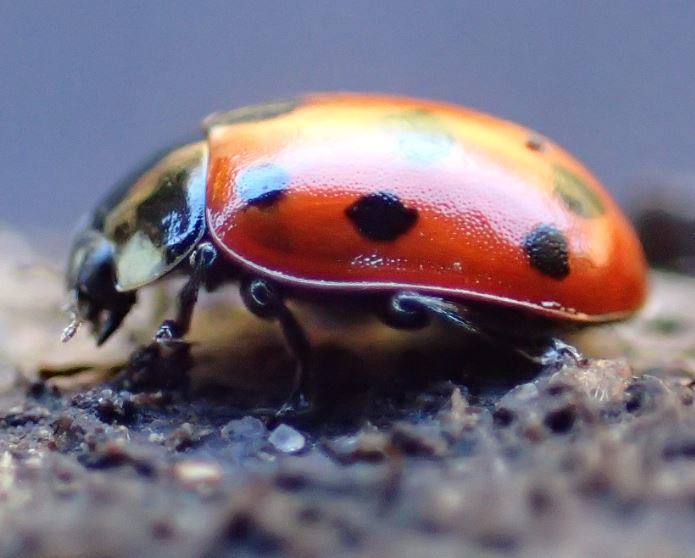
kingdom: Animalia
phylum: Arthropoda
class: Insecta
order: Coleoptera
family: Coccinellidae
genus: Coccinella
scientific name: Coccinella undecimpunctata
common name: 11-spot ladybird
